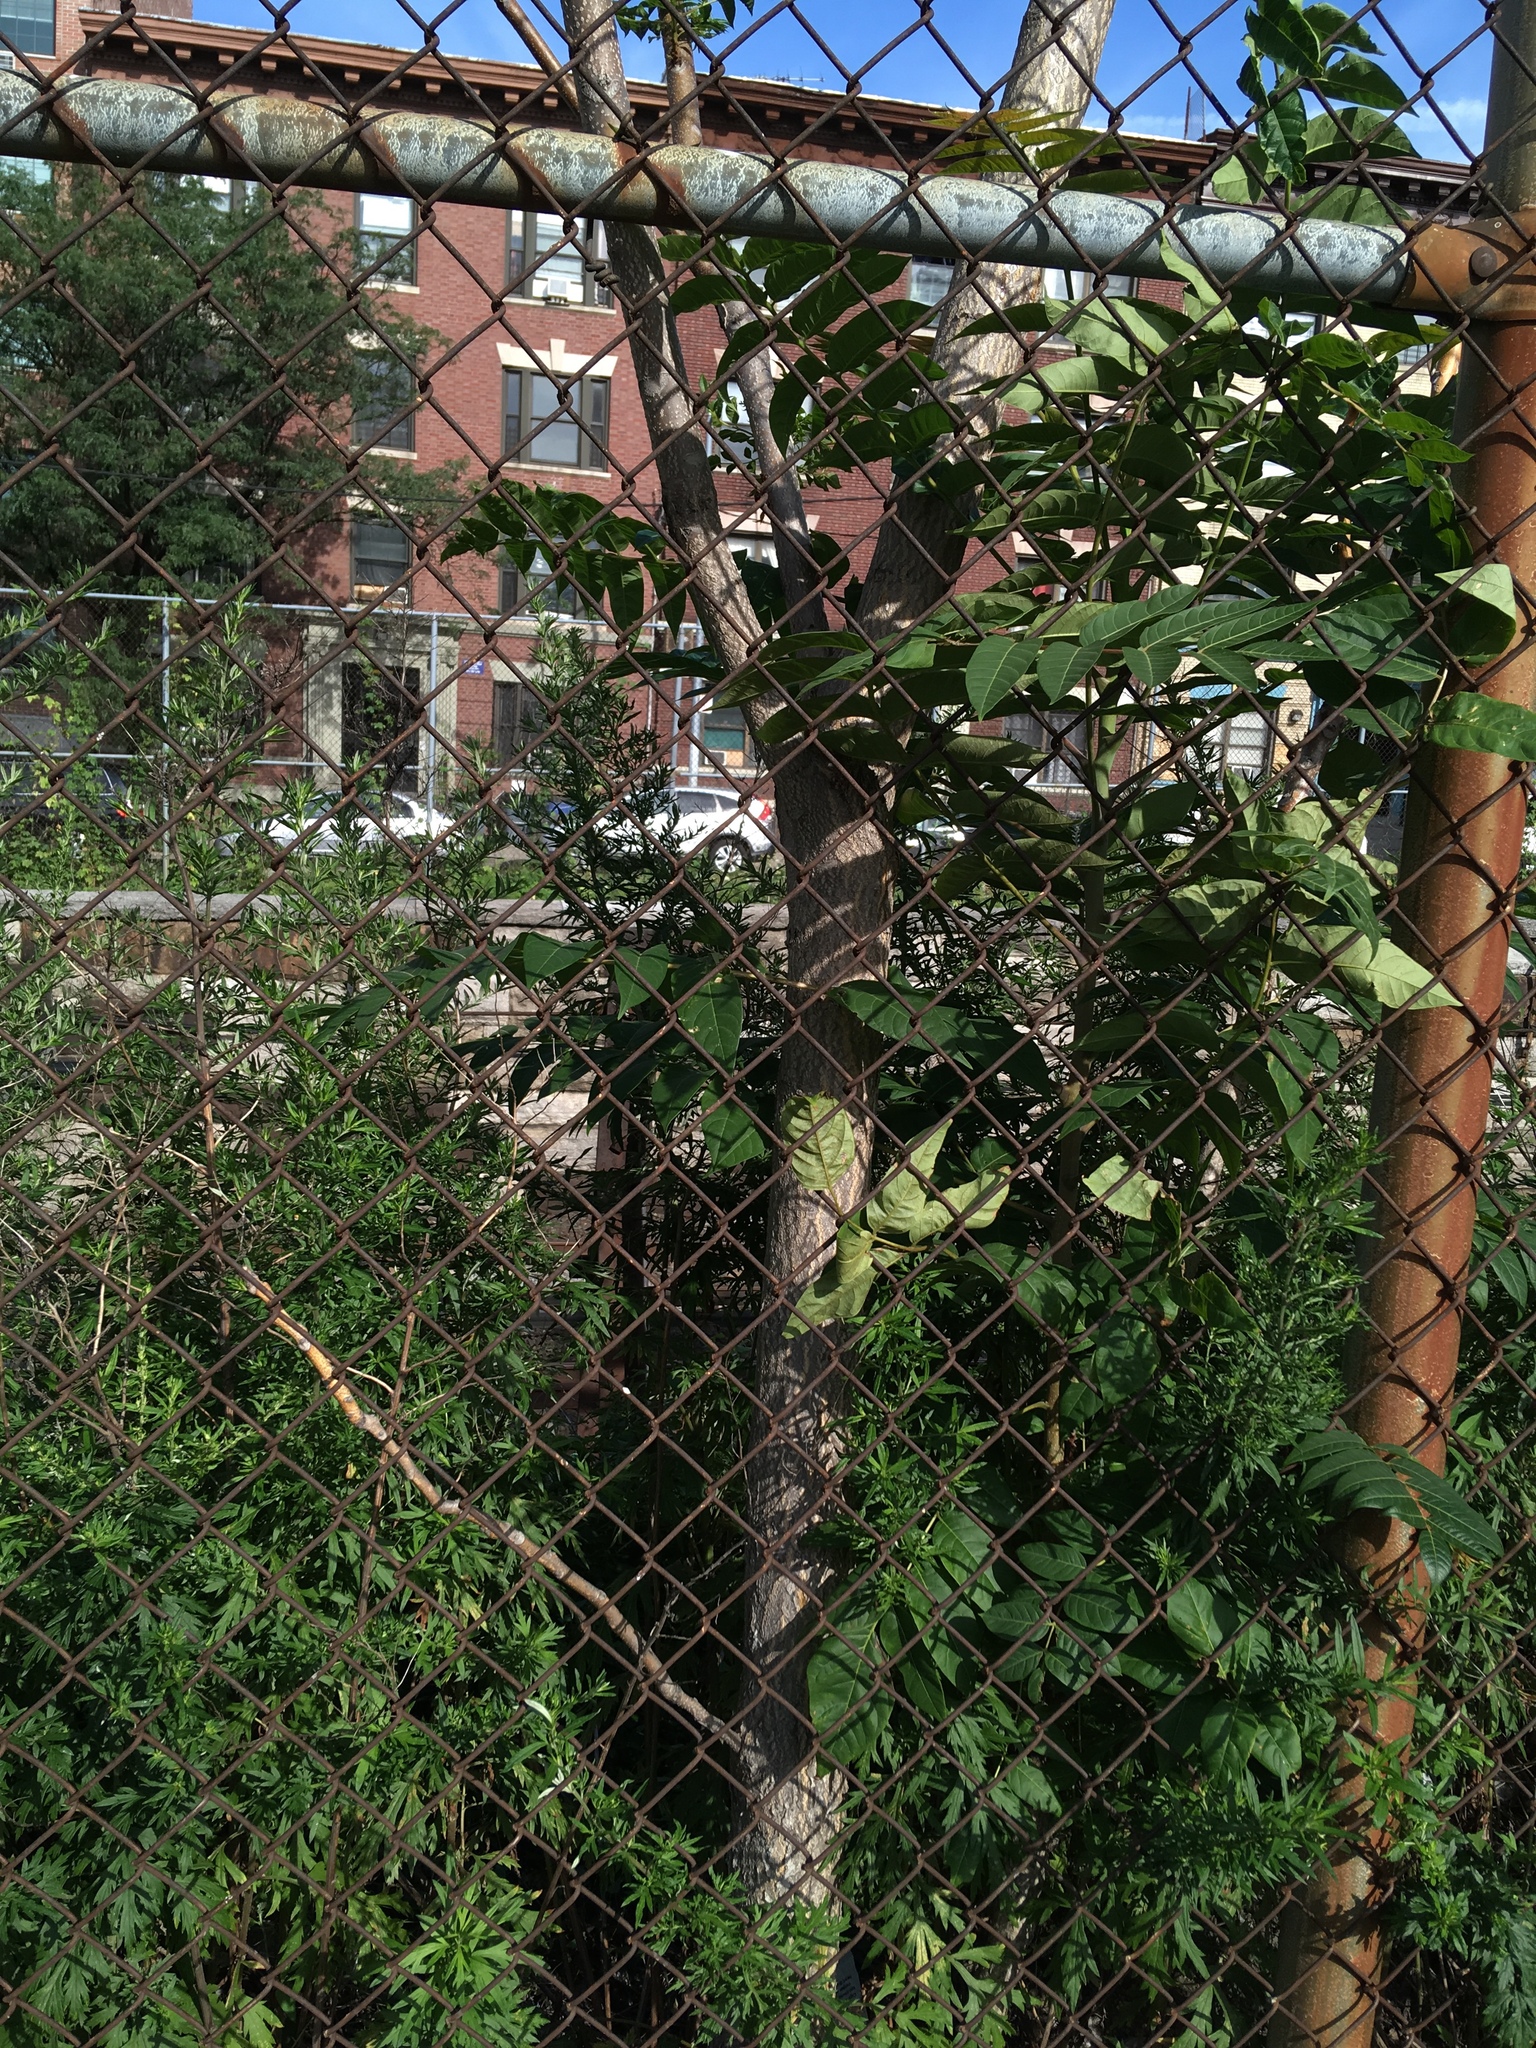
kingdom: Plantae
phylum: Tracheophyta
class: Magnoliopsida
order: Sapindales
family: Simaroubaceae
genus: Ailanthus
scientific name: Ailanthus altissima
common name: Tree-of-heaven
